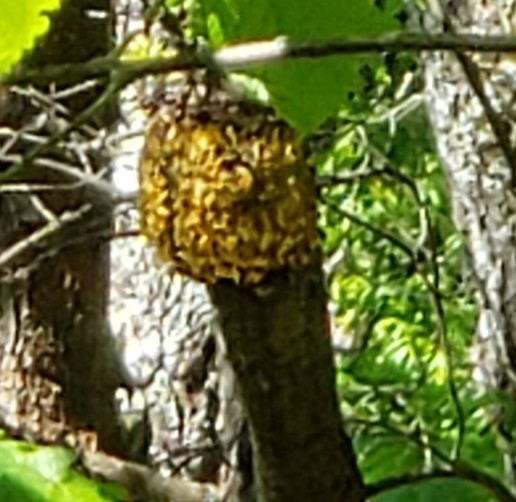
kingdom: Fungi
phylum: Basidiomycota
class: Pucciniomycetes
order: Pucciniales
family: Cronartiaceae
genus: Cronartium
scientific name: Cronartium quercuum
